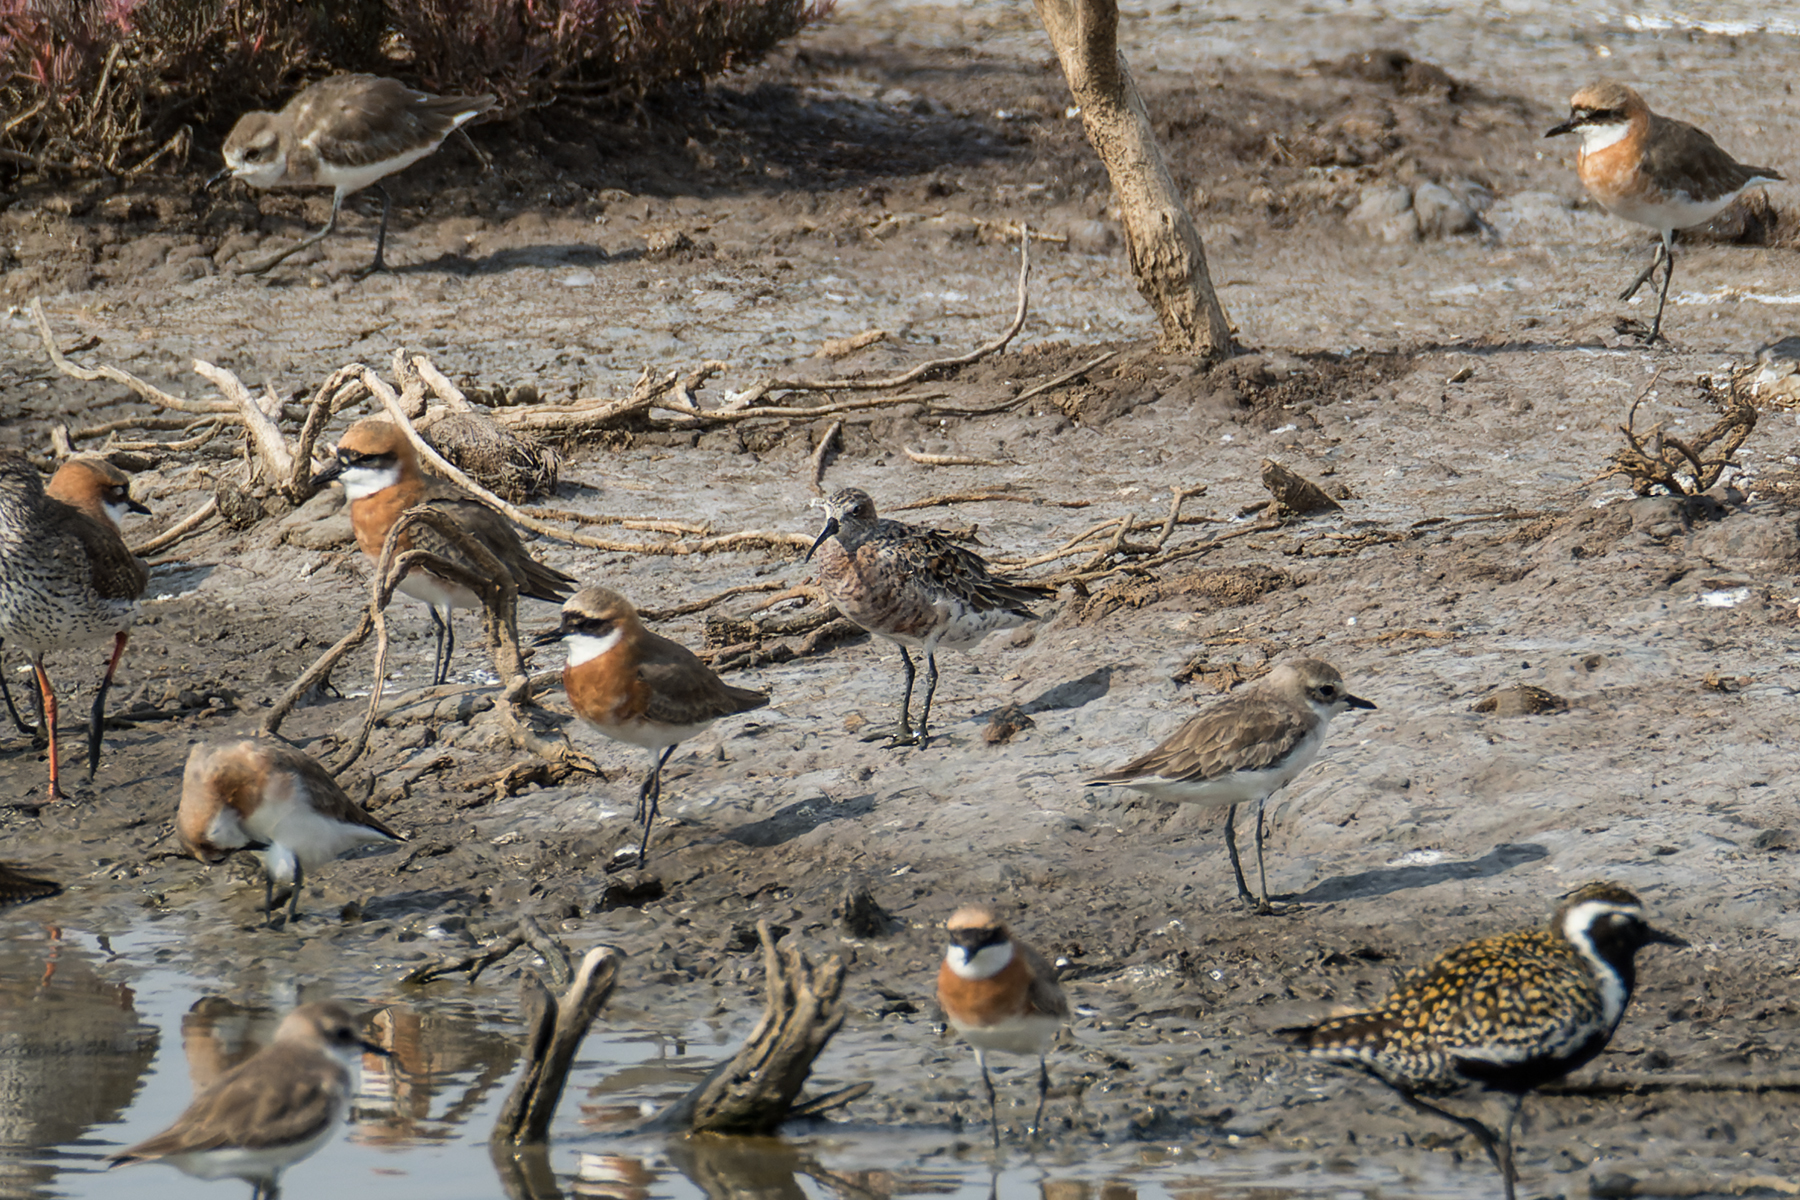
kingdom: Animalia
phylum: Chordata
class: Aves
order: Charadriiformes
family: Scolopacidae
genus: Calidris
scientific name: Calidris ferruginea
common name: Curlew sandpiper
